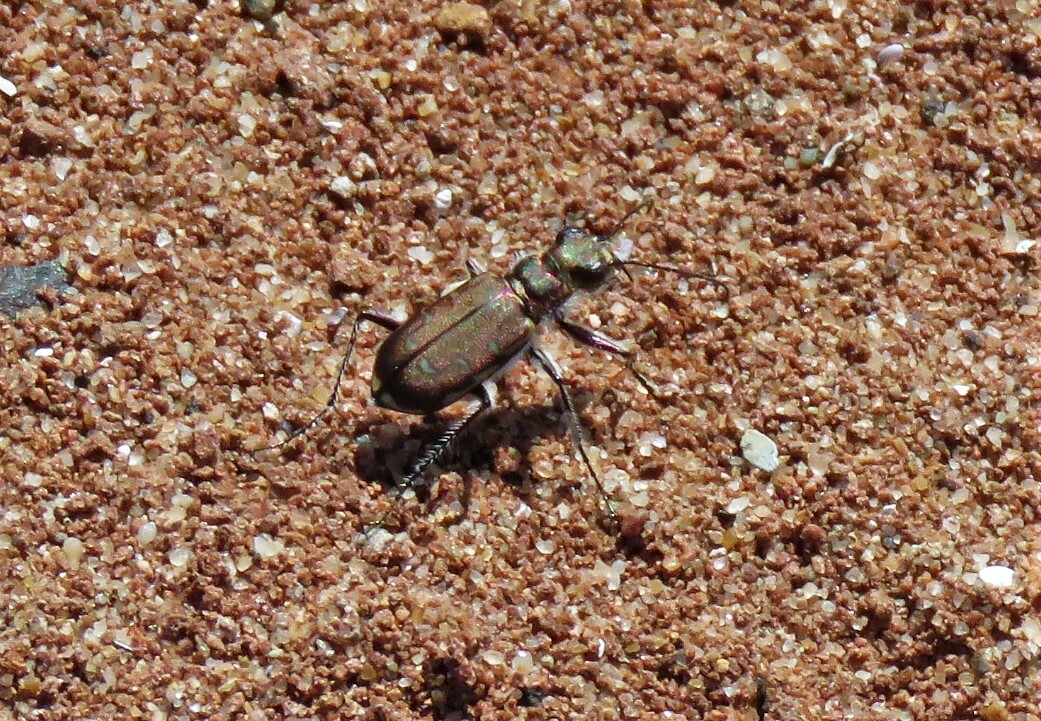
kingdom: Animalia
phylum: Arthropoda
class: Insecta
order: Coleoptera
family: Carabidae
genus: Cicindela
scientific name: Cicindela repanda
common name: Bronzed tiger beetle
